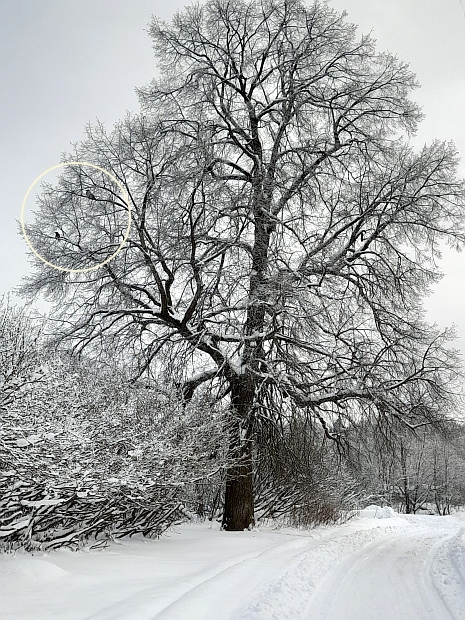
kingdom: Animalia
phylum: Chordata
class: Aves
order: Passeriformes
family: Corvidae
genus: Corvus
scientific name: Corvus cornix
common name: Hooded crow
